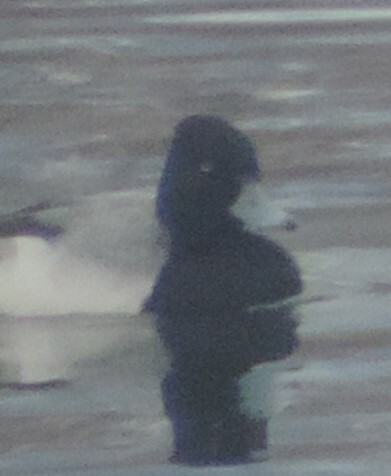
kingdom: Animalia
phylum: Chordata
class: Aves
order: Anseriformes
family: Anatidae
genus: Aythya
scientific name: Aythya affinis
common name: Lesser scaup
